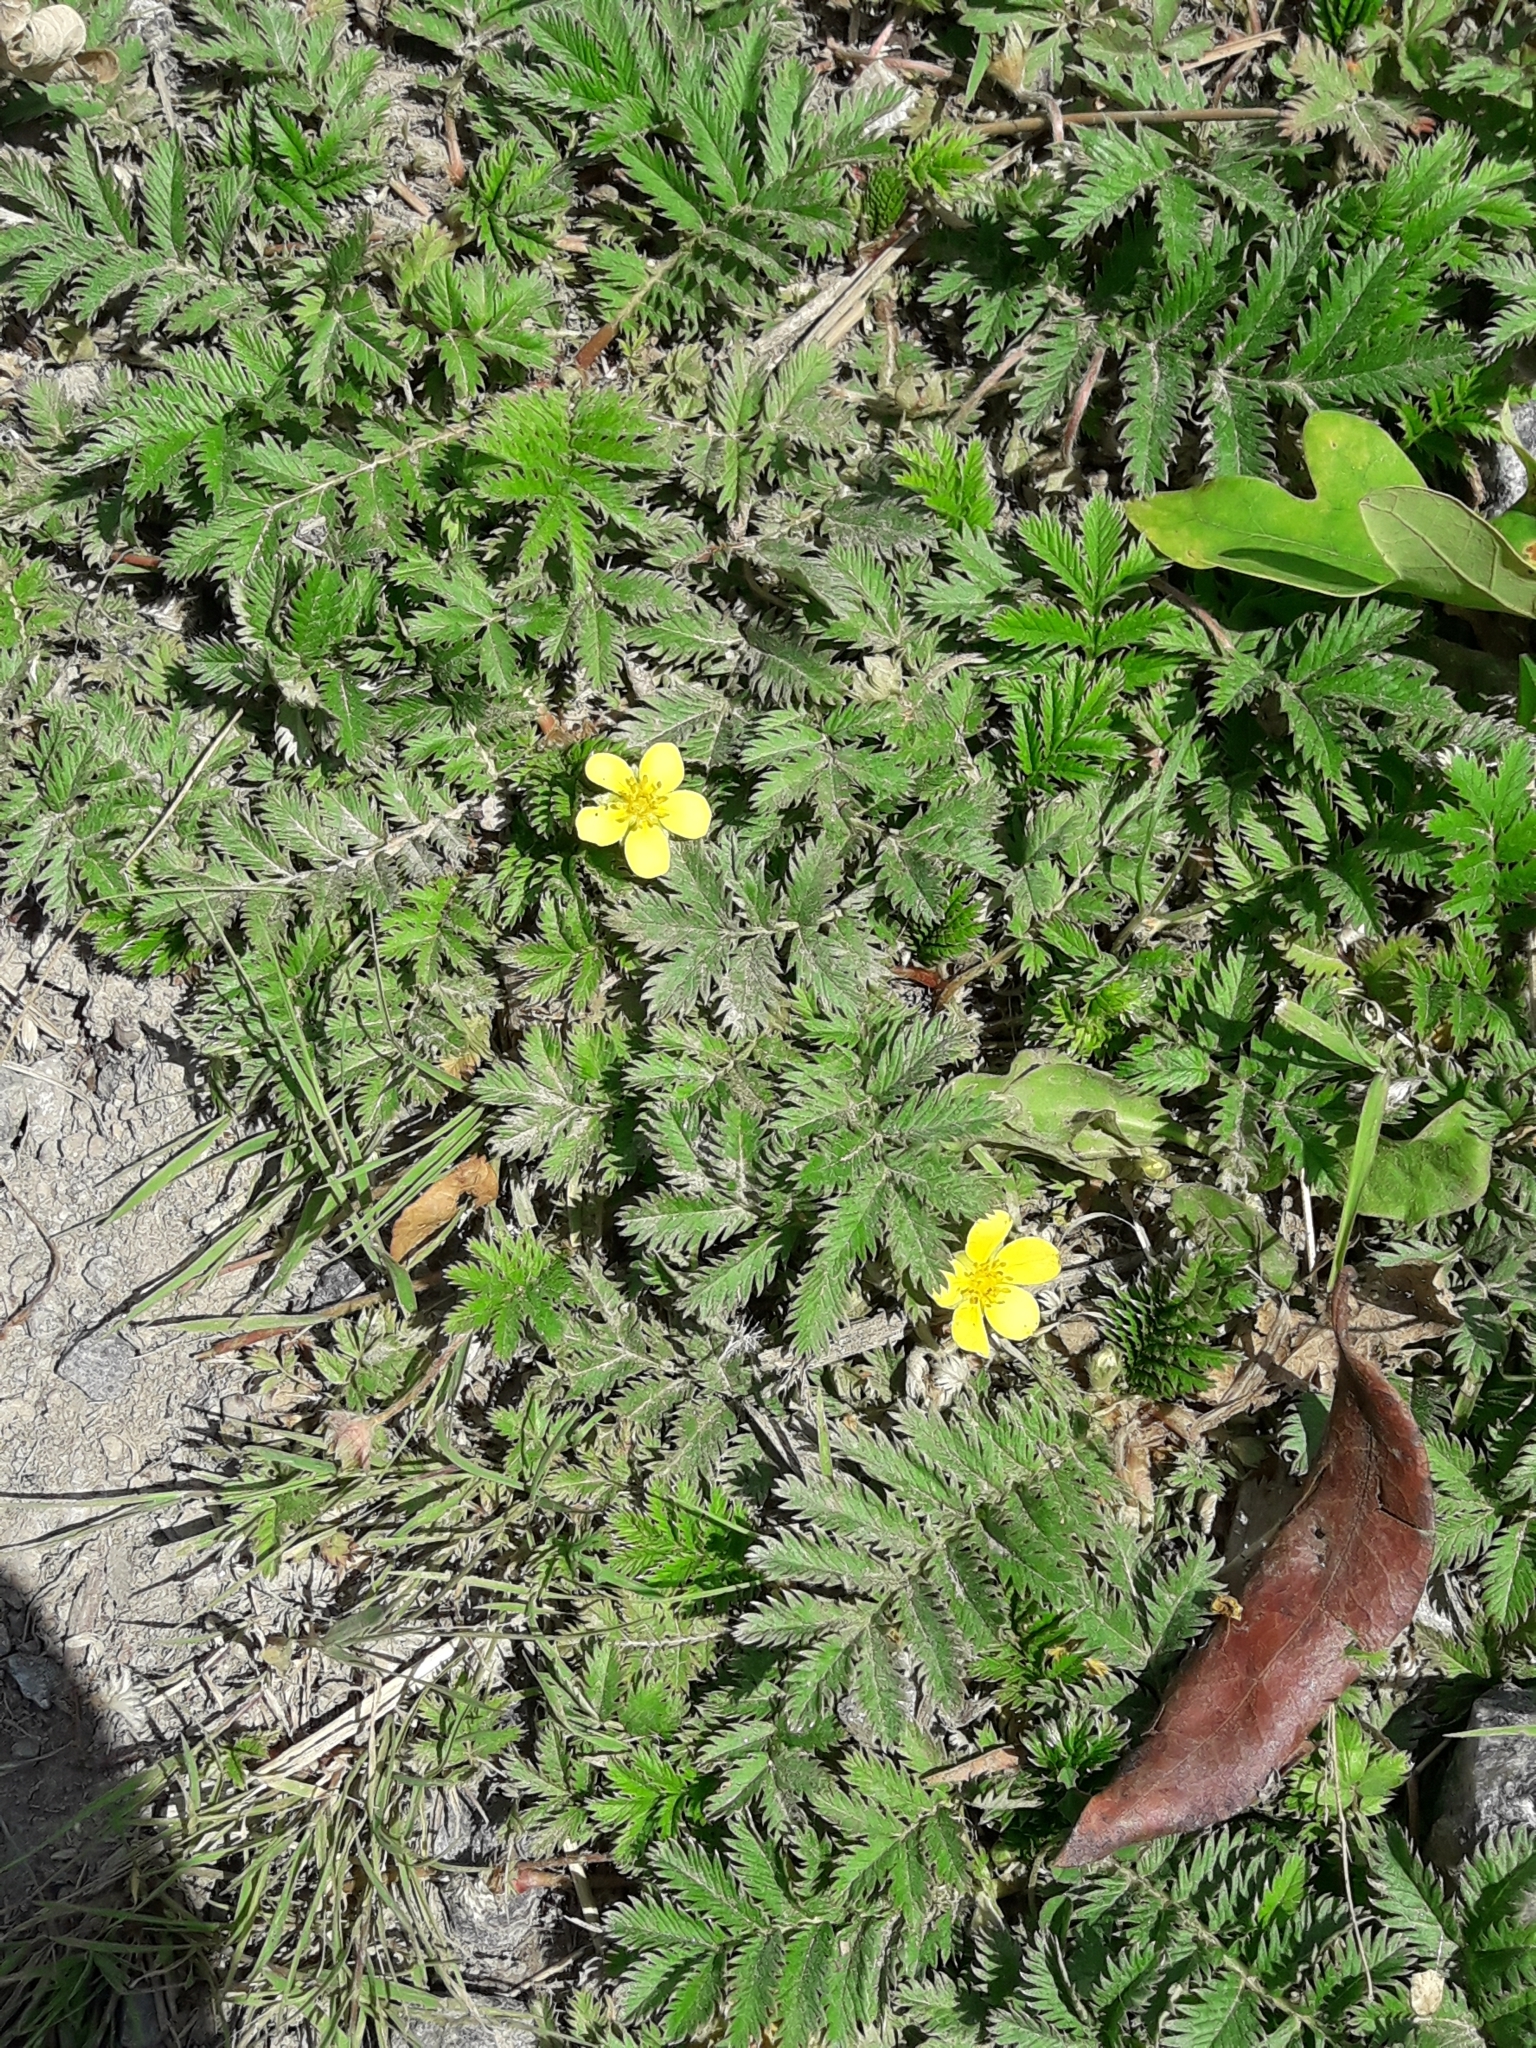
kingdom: Plantae
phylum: Tracheophyta
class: Magnoliopsida
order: Rosales
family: Rosaceae
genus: Argentina
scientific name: Argentina anserina
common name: Common silverweed
